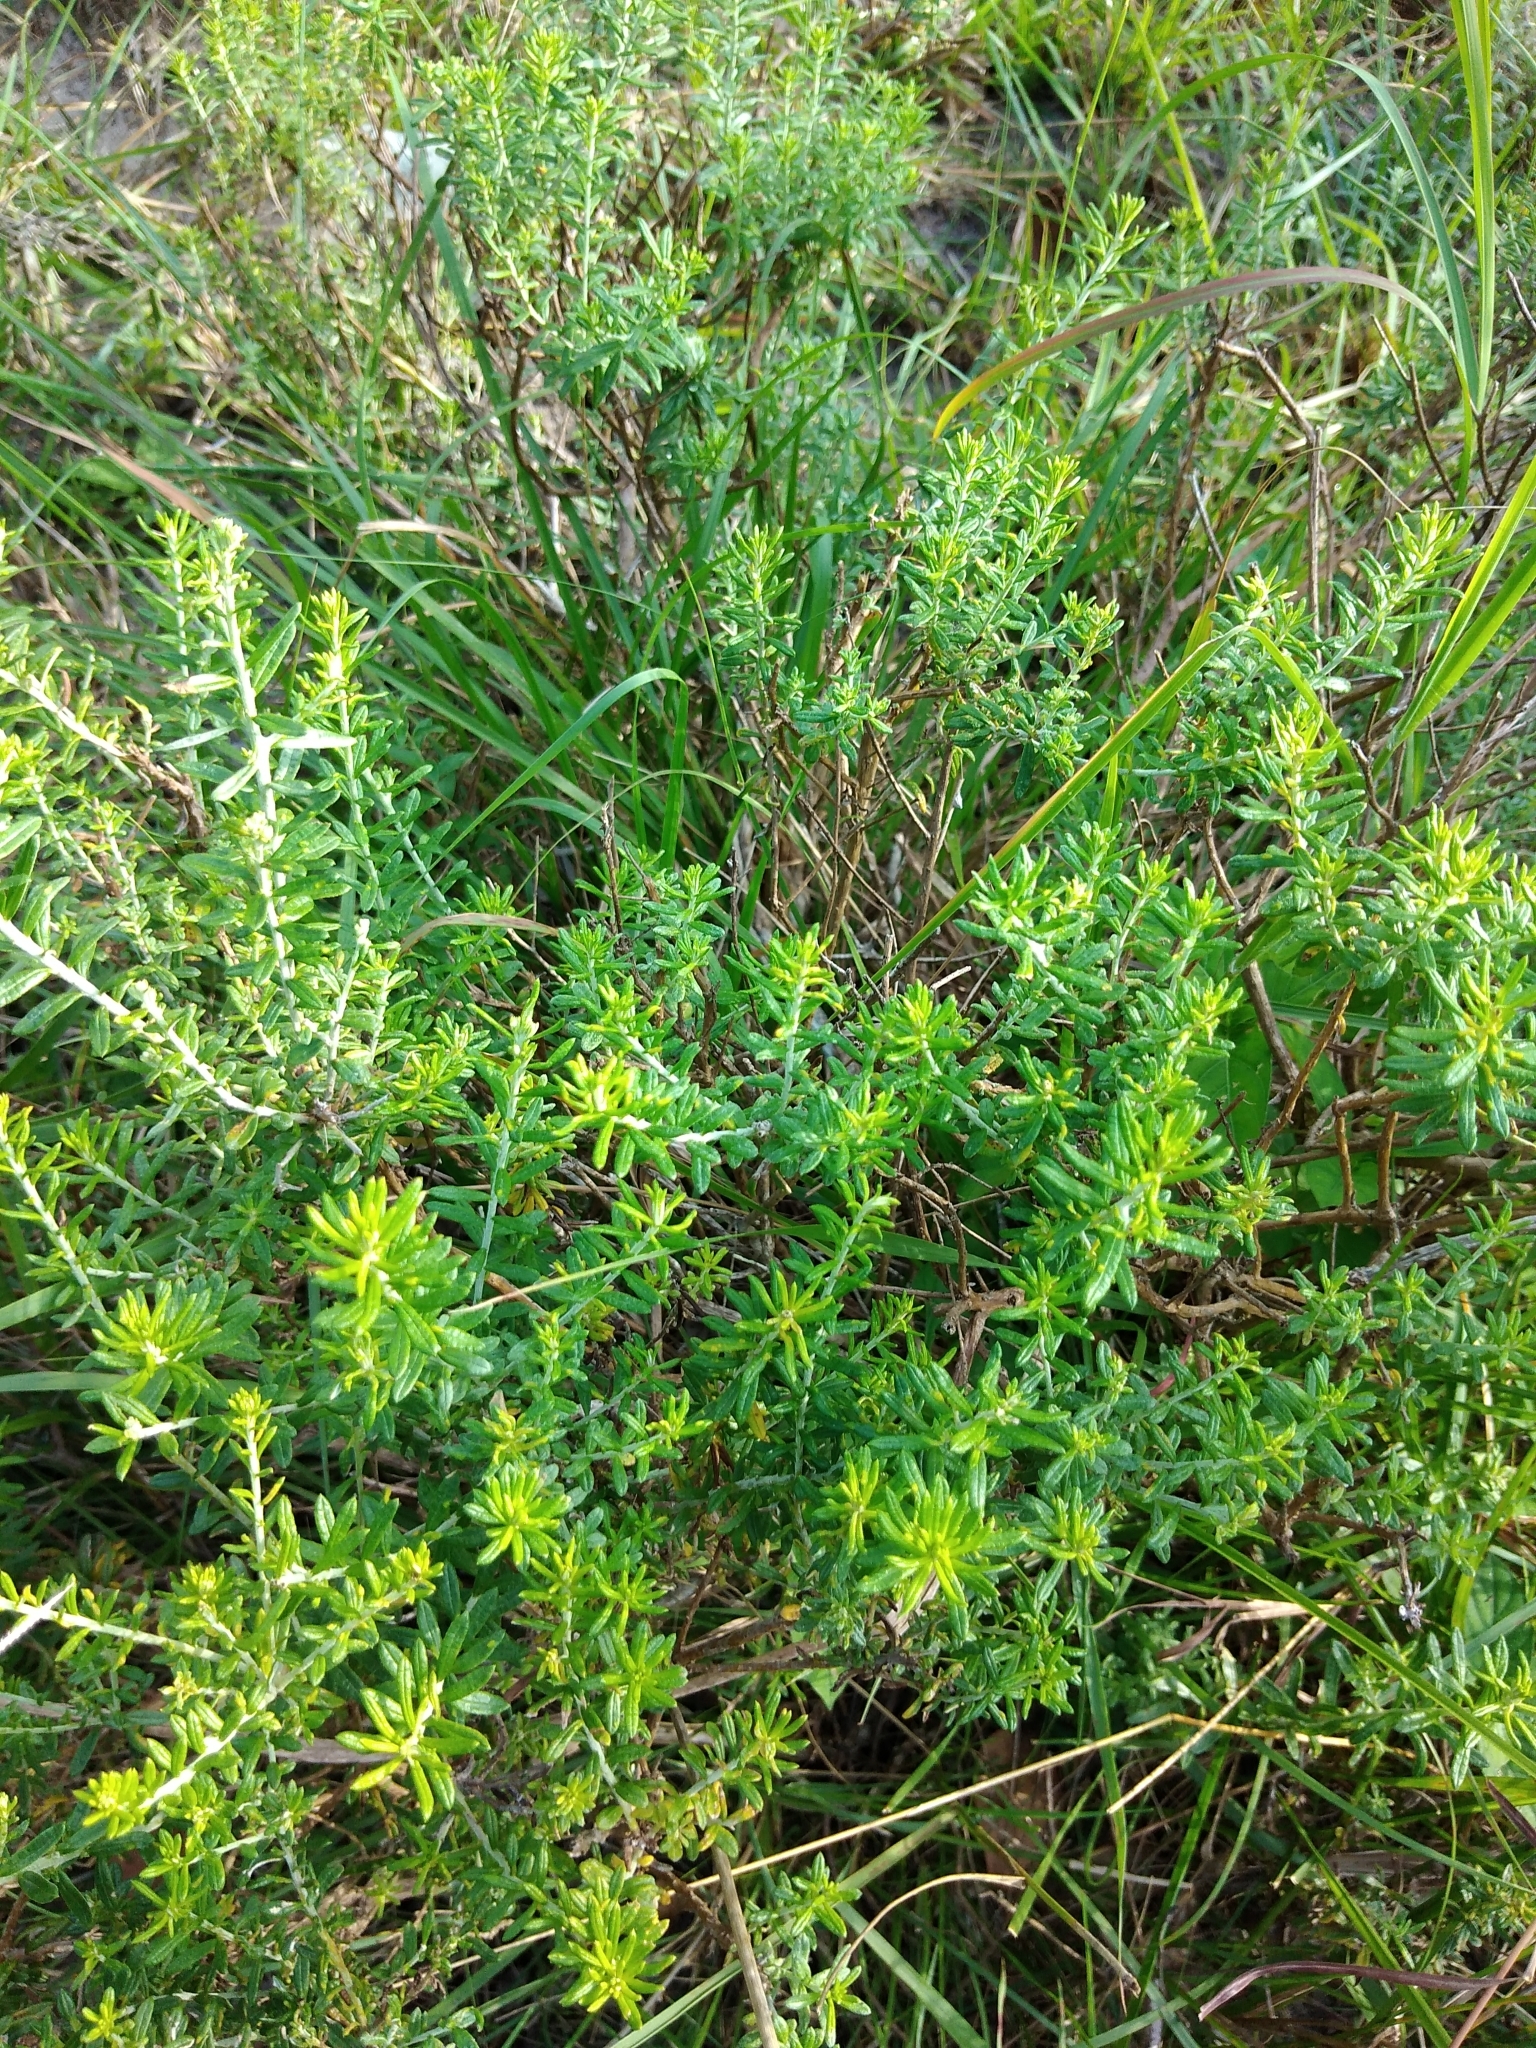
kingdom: Plantae
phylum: Tracheophyta
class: Magnoliopsida
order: Asterales
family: Asteraceae
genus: Helichrysum
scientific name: Helichrysum kraussii
